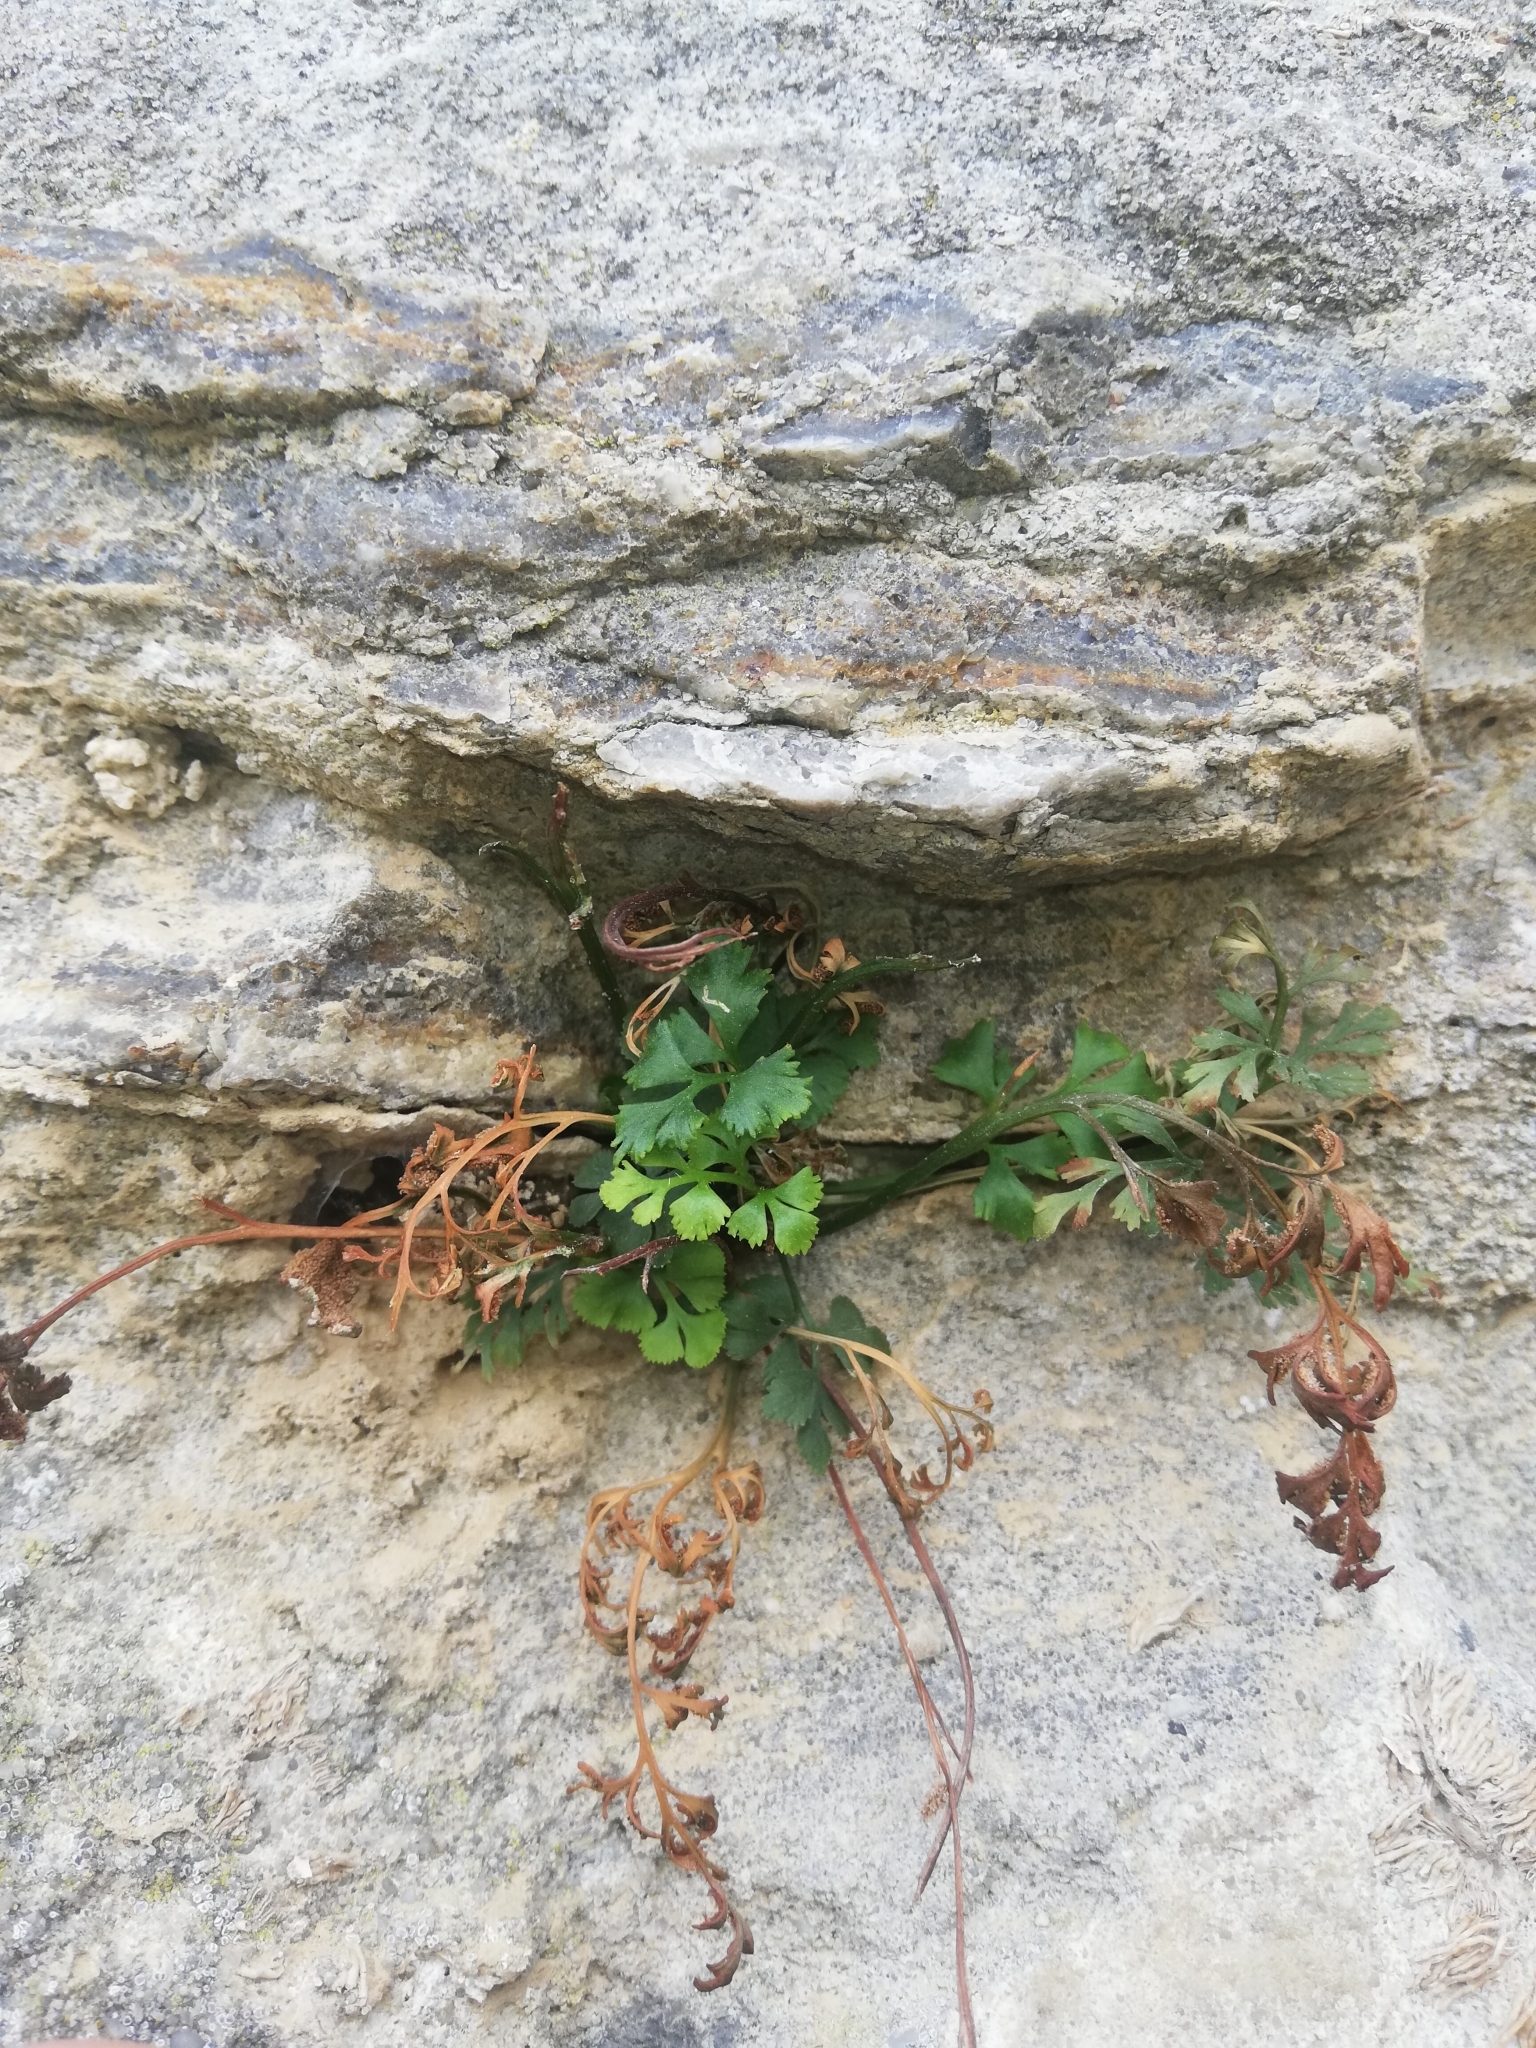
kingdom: Plantae
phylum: Tracheophyta
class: Polypodiopsida
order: Polypodiales
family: Aspleniaceae
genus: Asplenium
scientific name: Asplenium ruta-muraria
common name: Wall-rue
